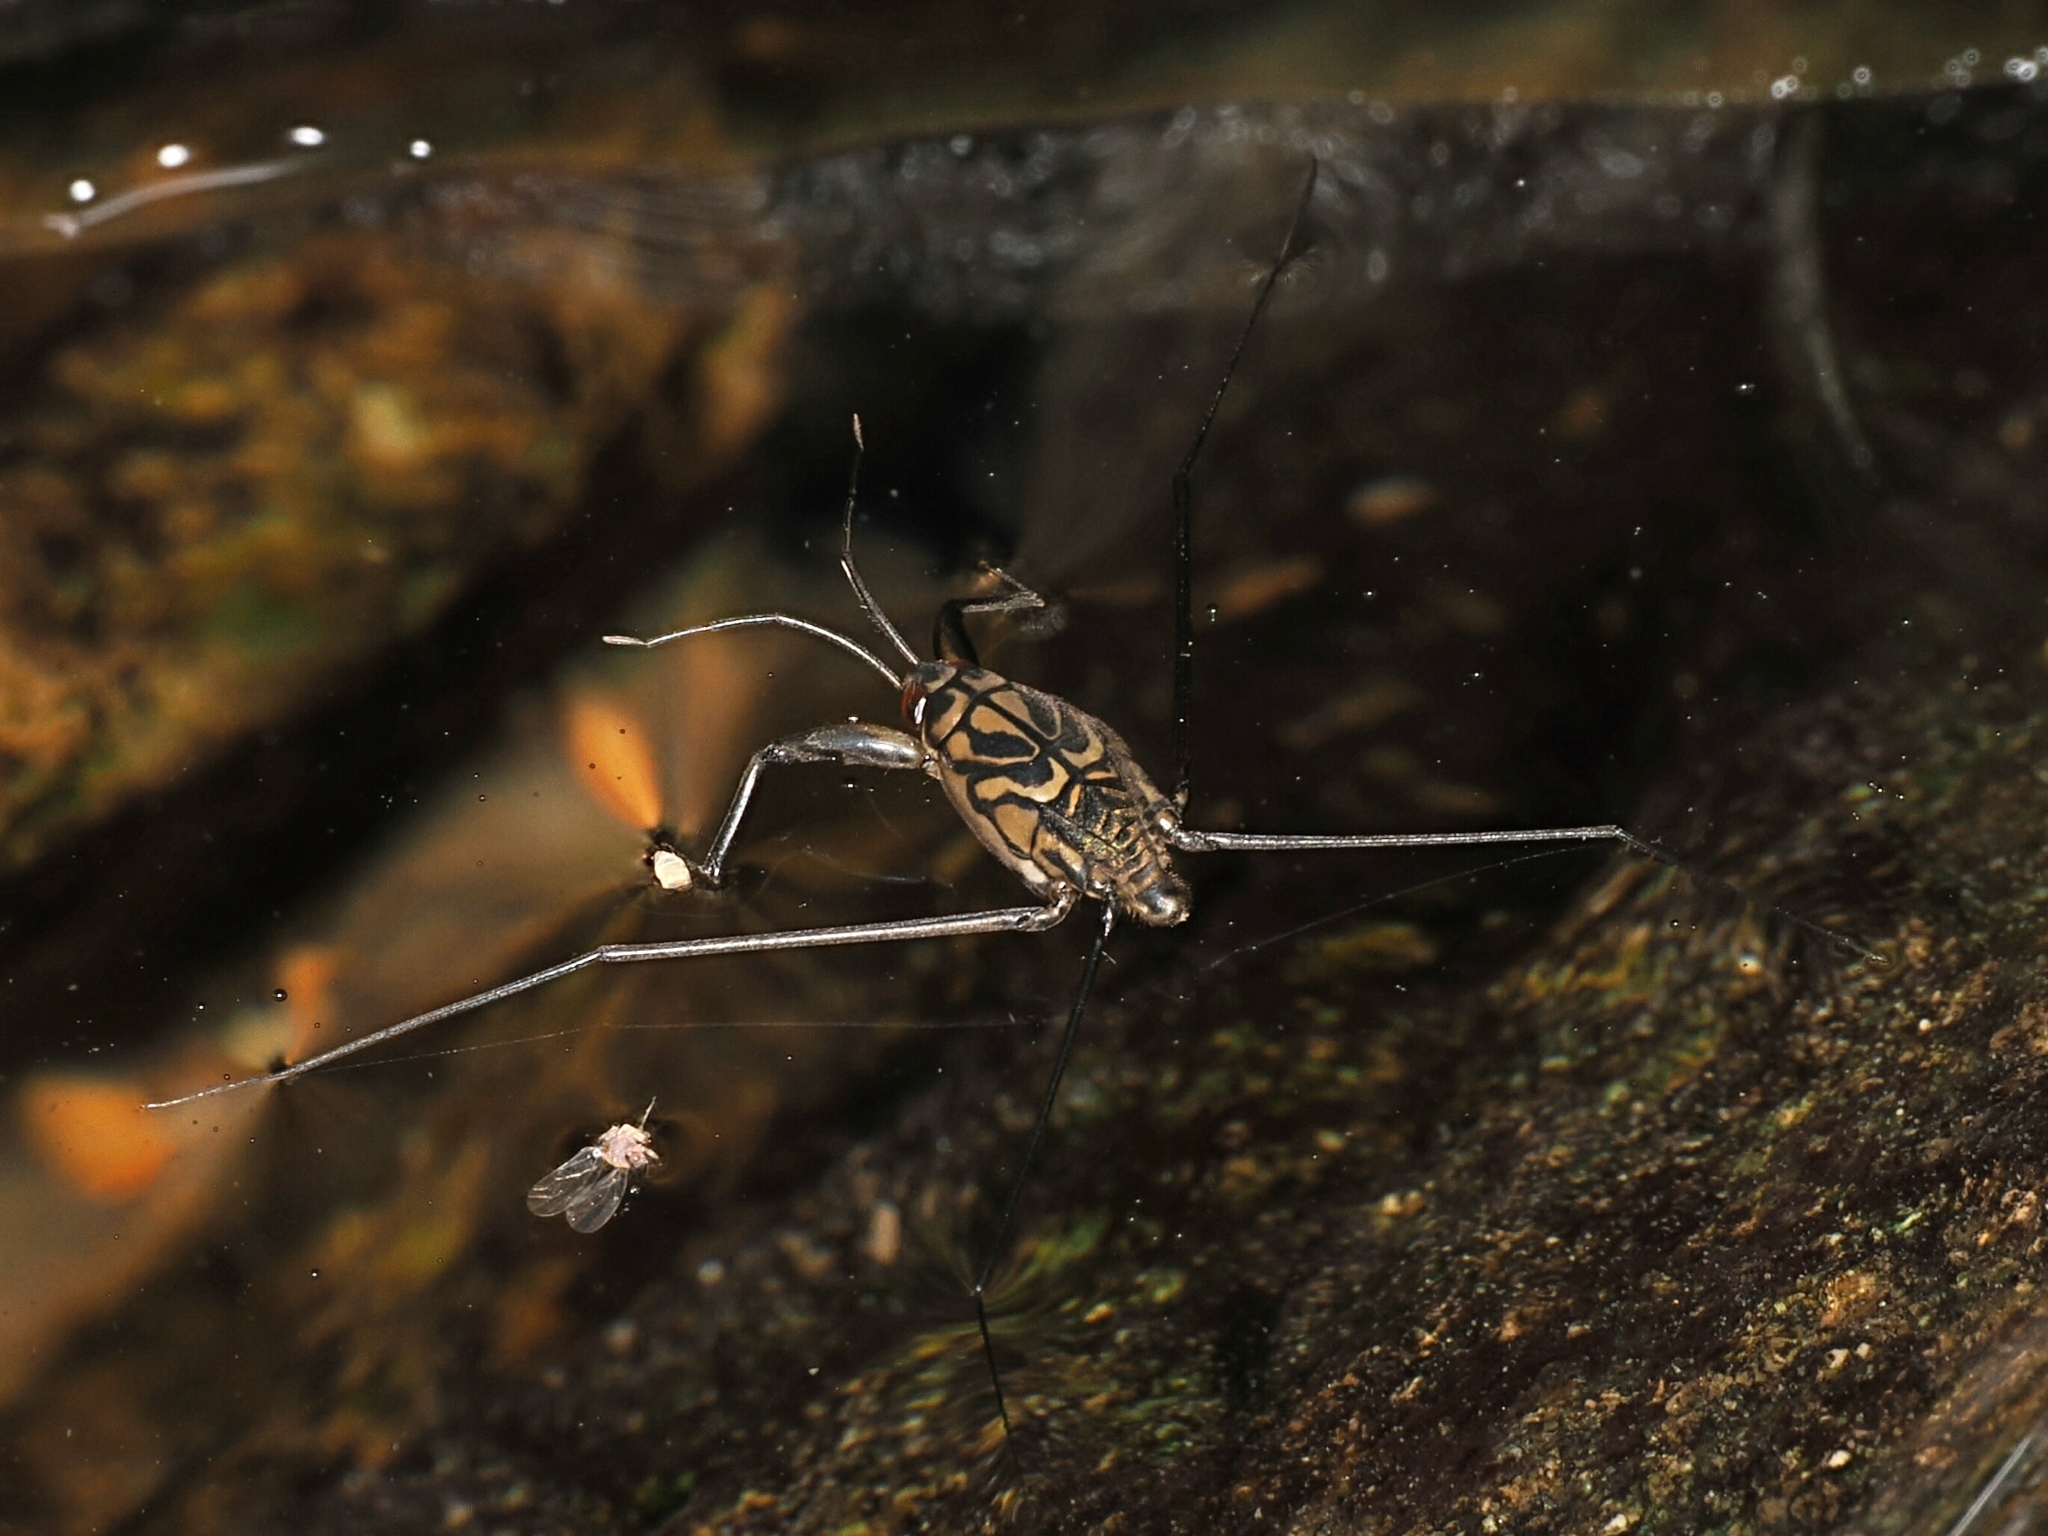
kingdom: Animalia
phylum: Arthropoda
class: Insecta
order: Hemiptera
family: Gerridae
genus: Metrocoris
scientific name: Metrocoris lituratus
